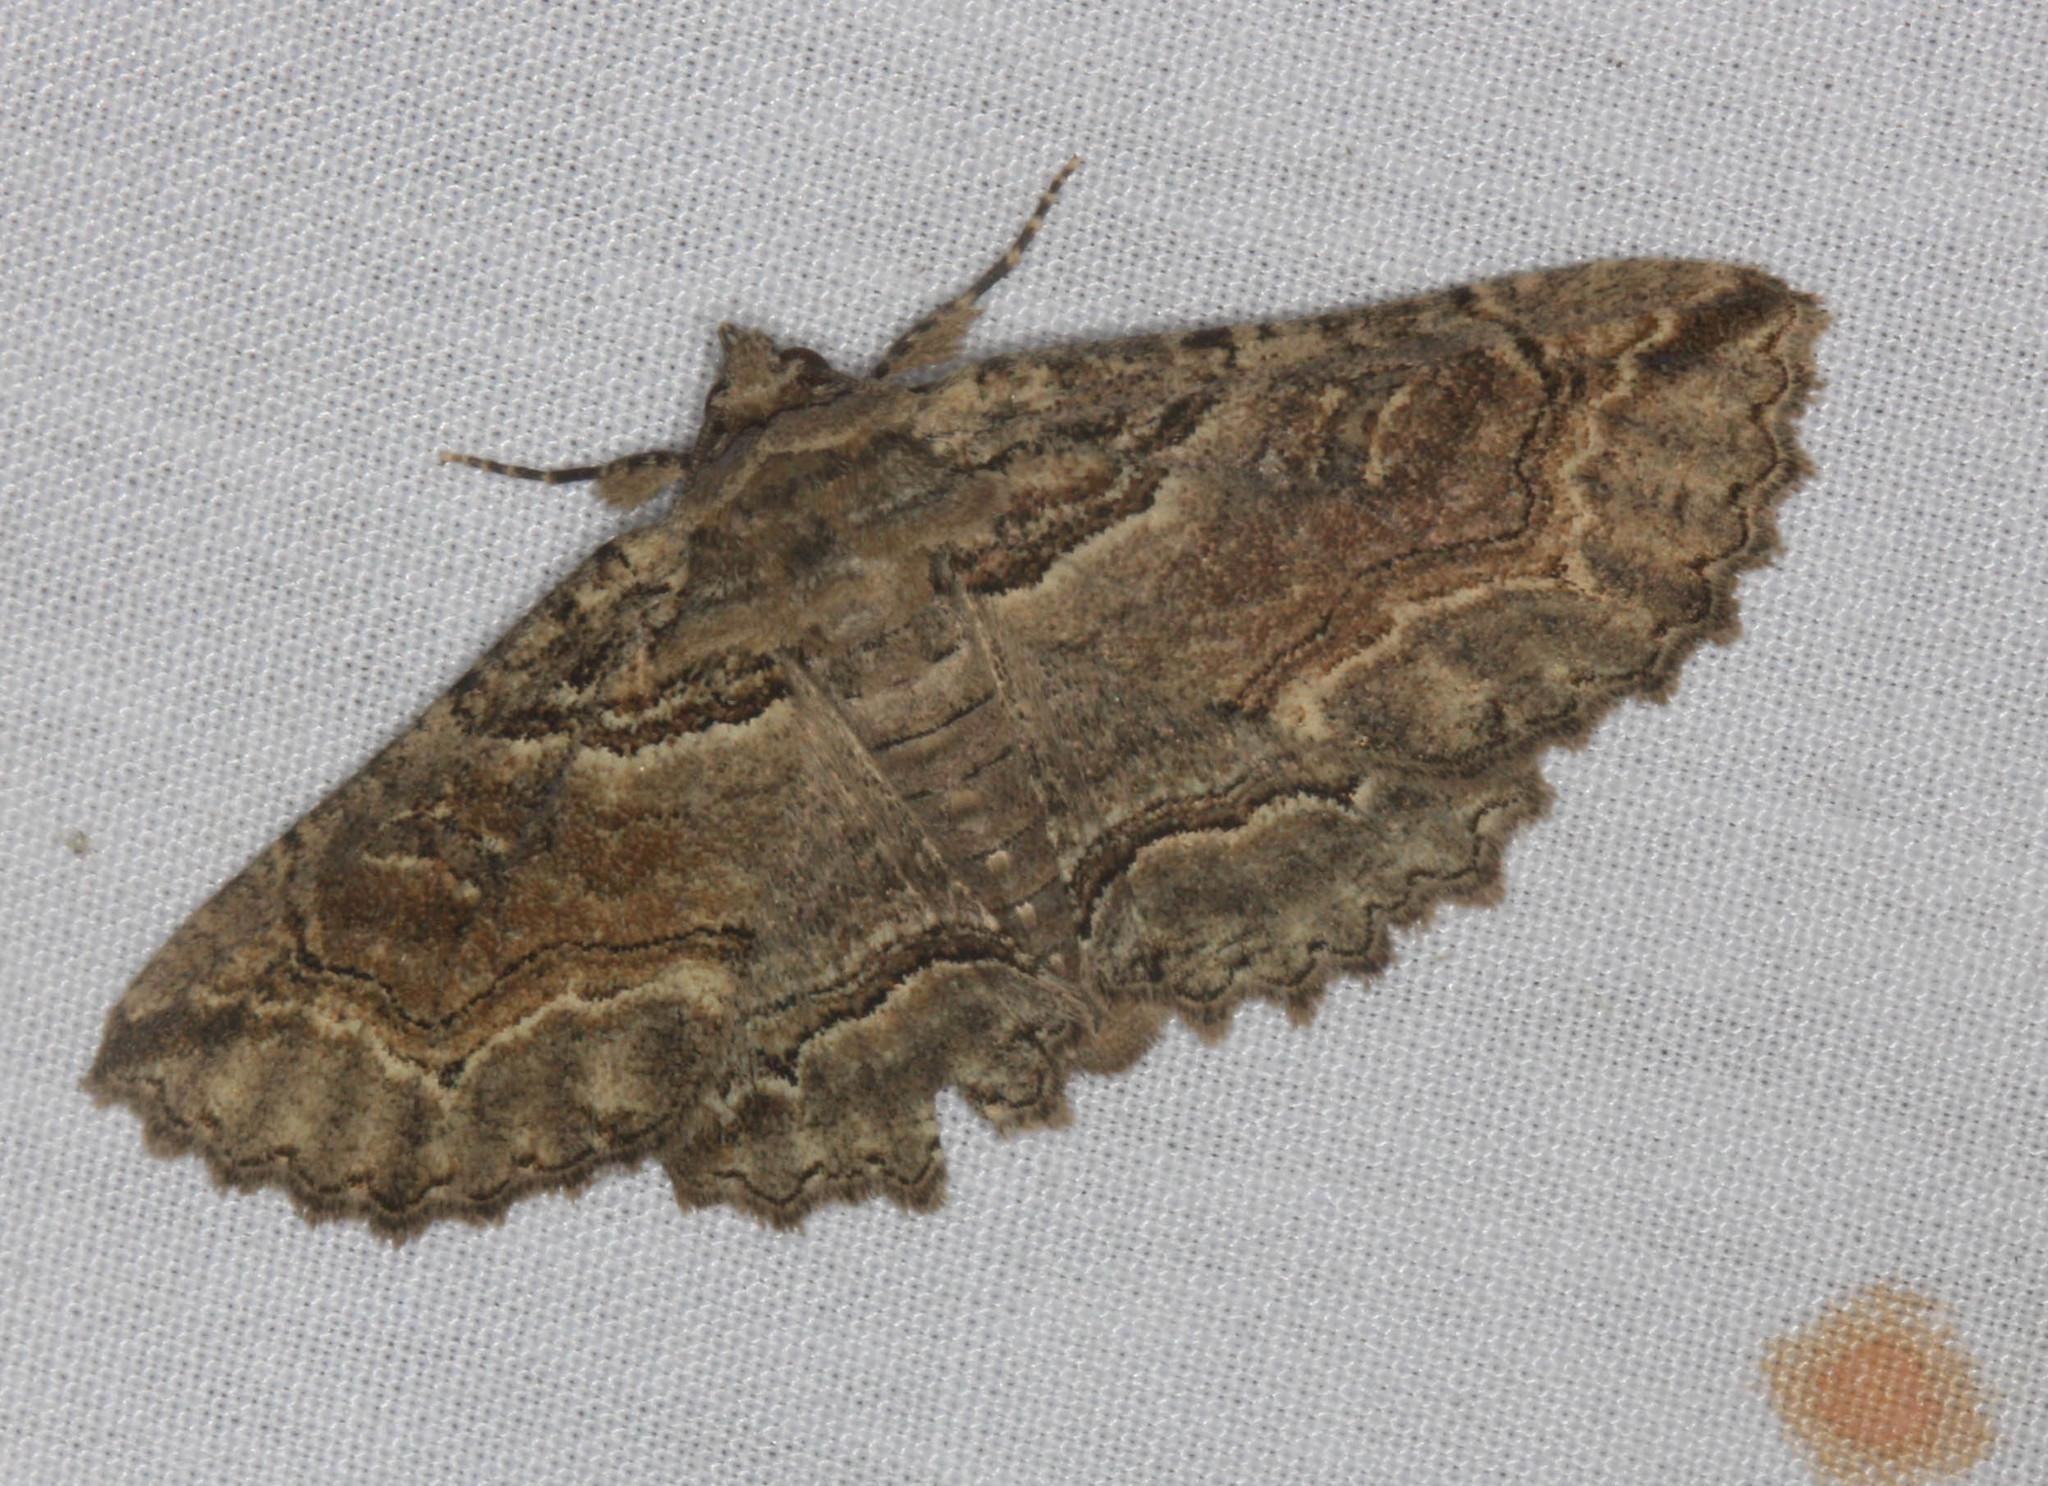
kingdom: Animalia
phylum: Arthropoda
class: Insecta
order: Lepidoptera
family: Erebidae
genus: Zale
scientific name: Zale rubi
